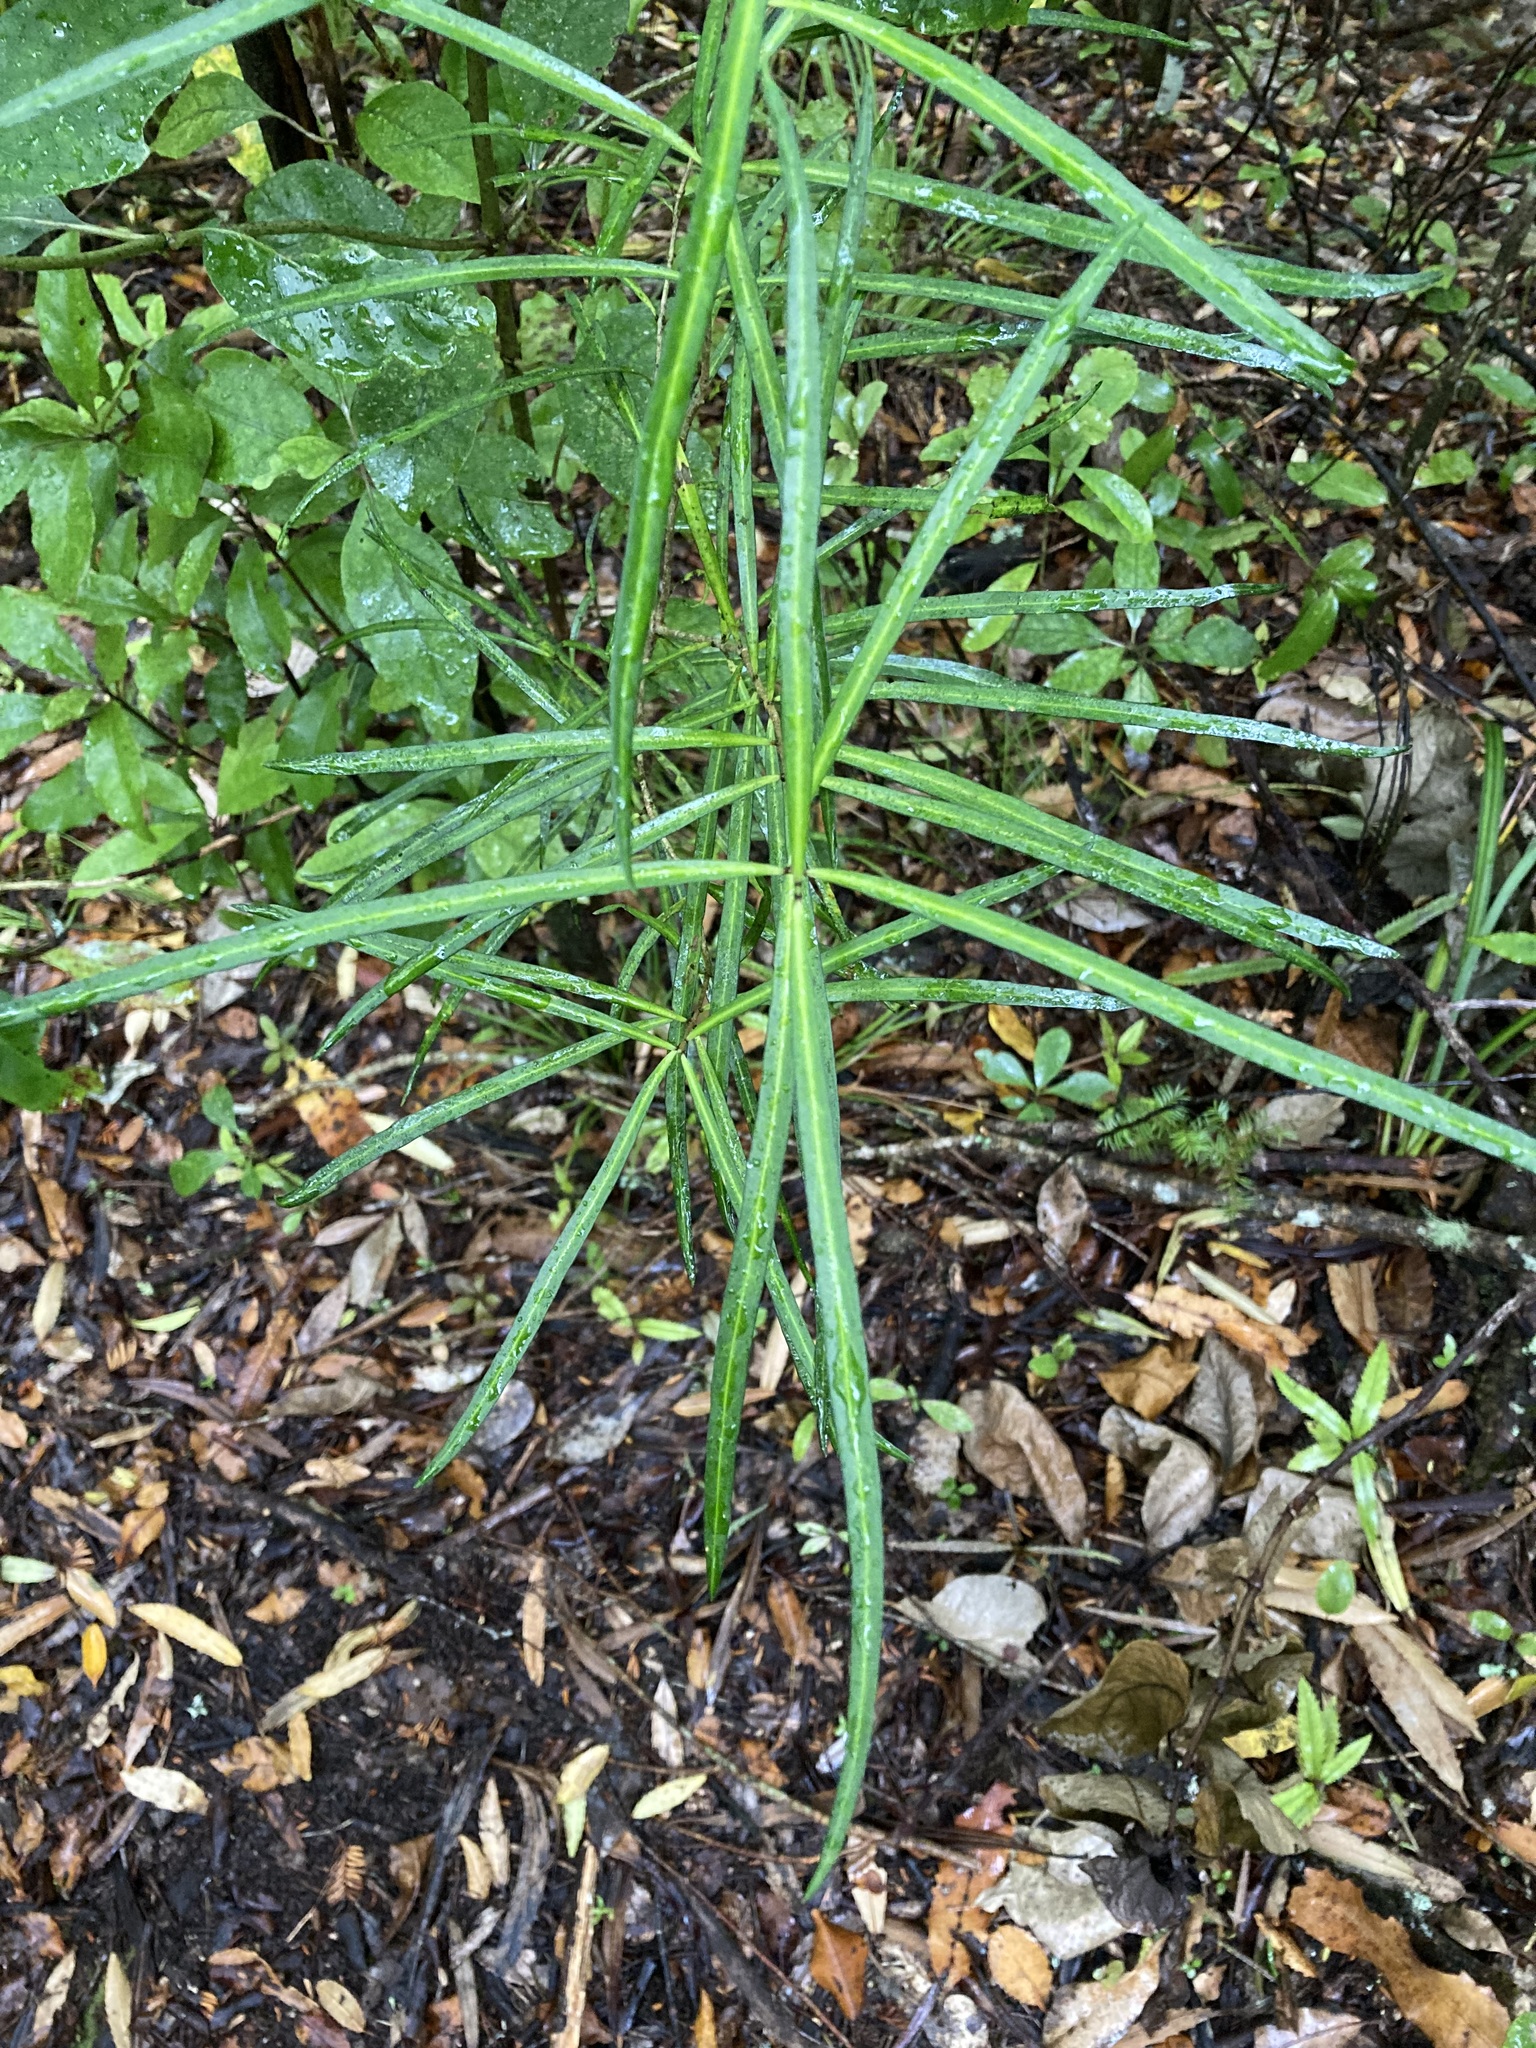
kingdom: Plantae
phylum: Tracheophyta
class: Magnoliopsida
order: Lamiales
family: Oleaceae
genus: Nestegis
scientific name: Nestegis lanceolata
